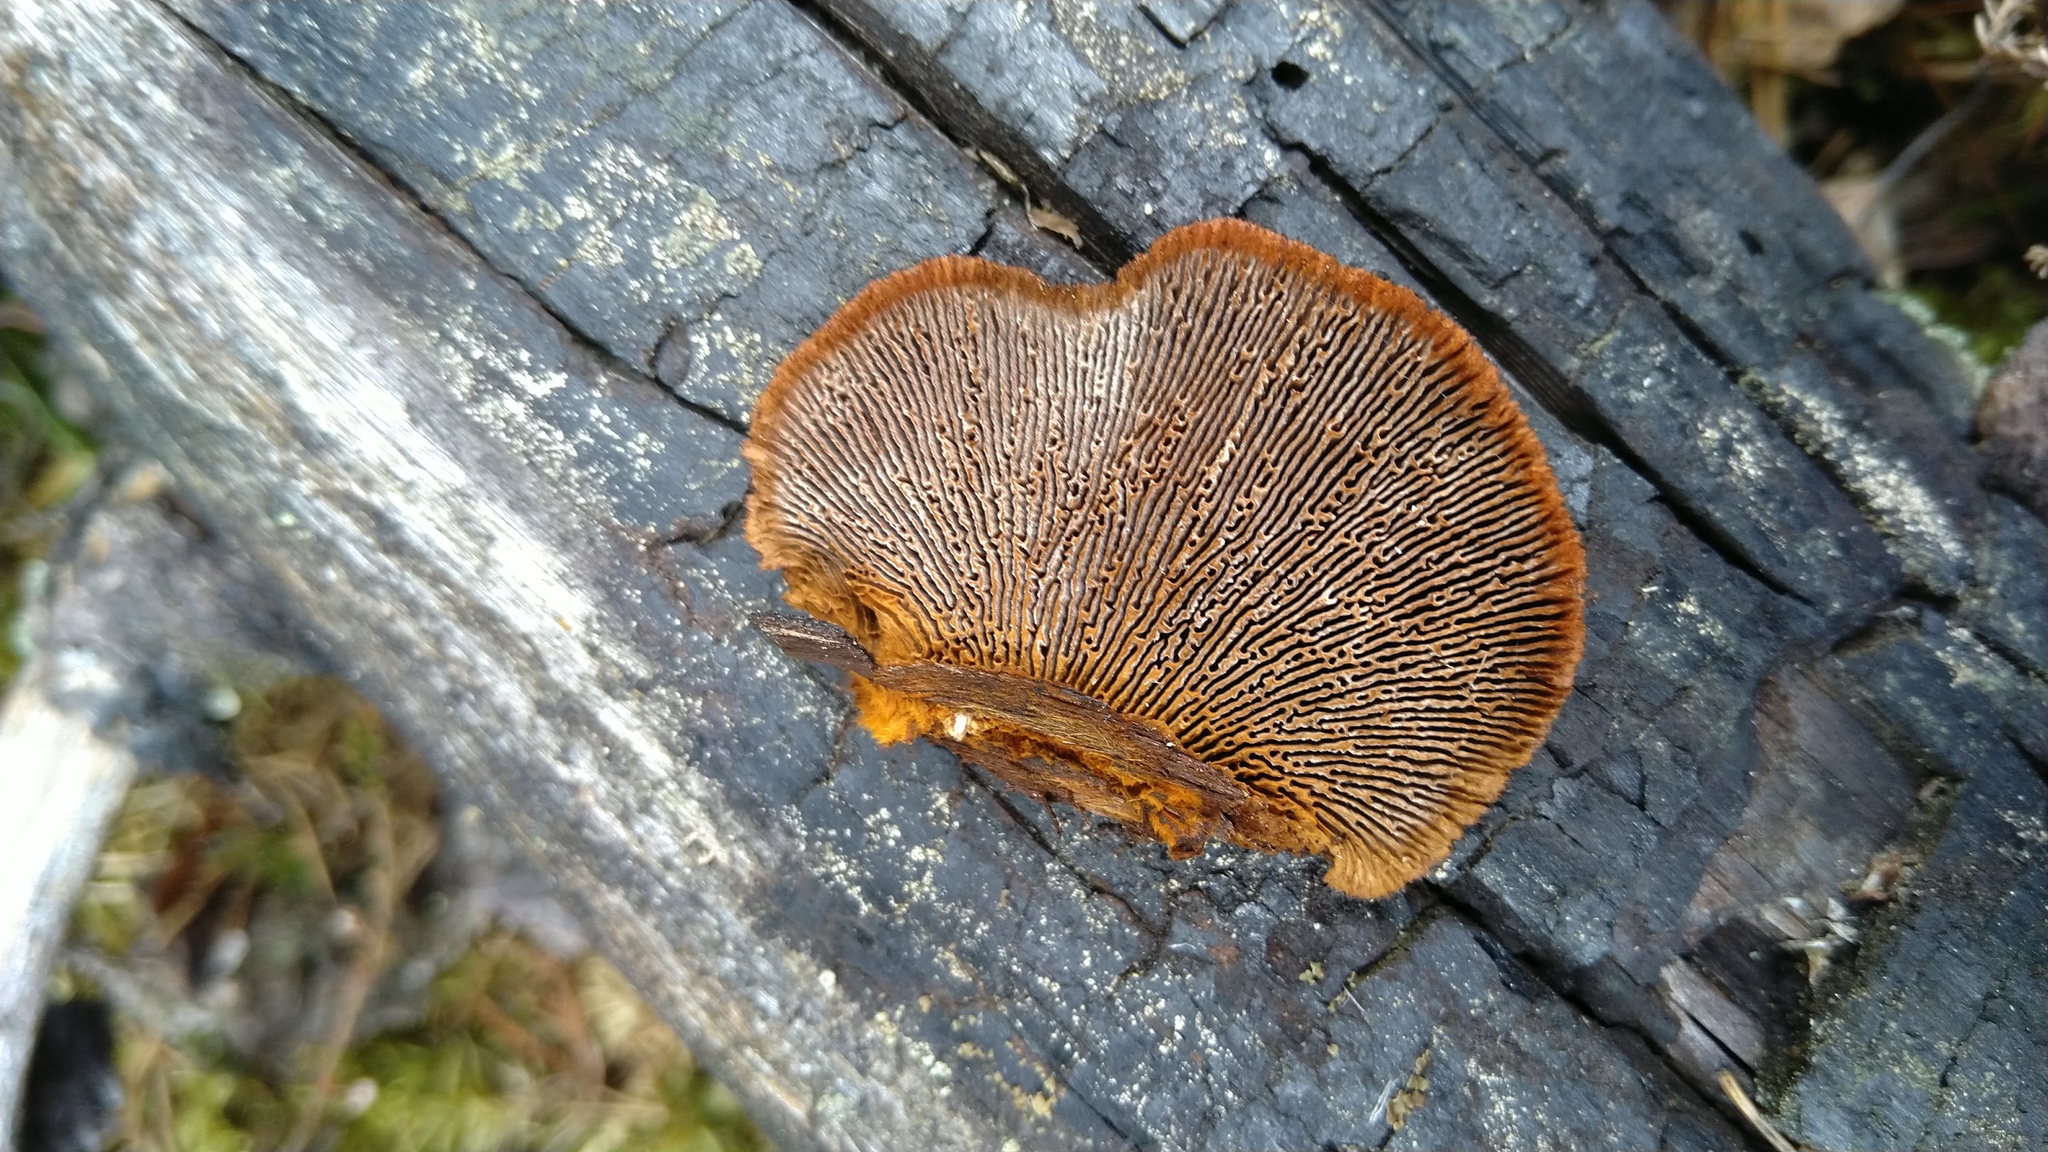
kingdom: Fungi
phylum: Basidiomycota
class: Agaricomycetes
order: Gloeophyllales
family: Gloeophyllaceae
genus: Gloeophyllum
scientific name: Gloeophyllum sepiarium
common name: Conifer mazegill
